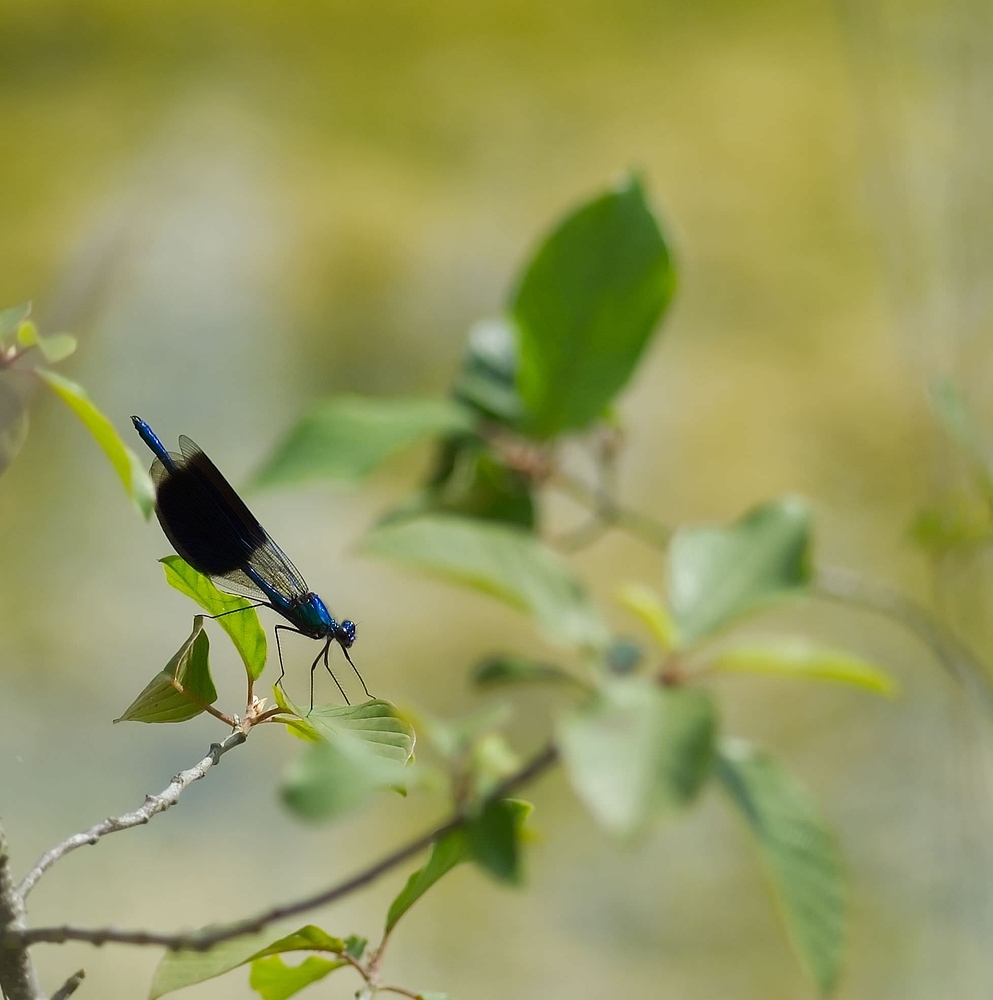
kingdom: Animalia
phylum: Arthropoda
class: Insecta
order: Odonata
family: Calopterygidae
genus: Calopteryx
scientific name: Calopteryx splendens
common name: Banded demoiselle
